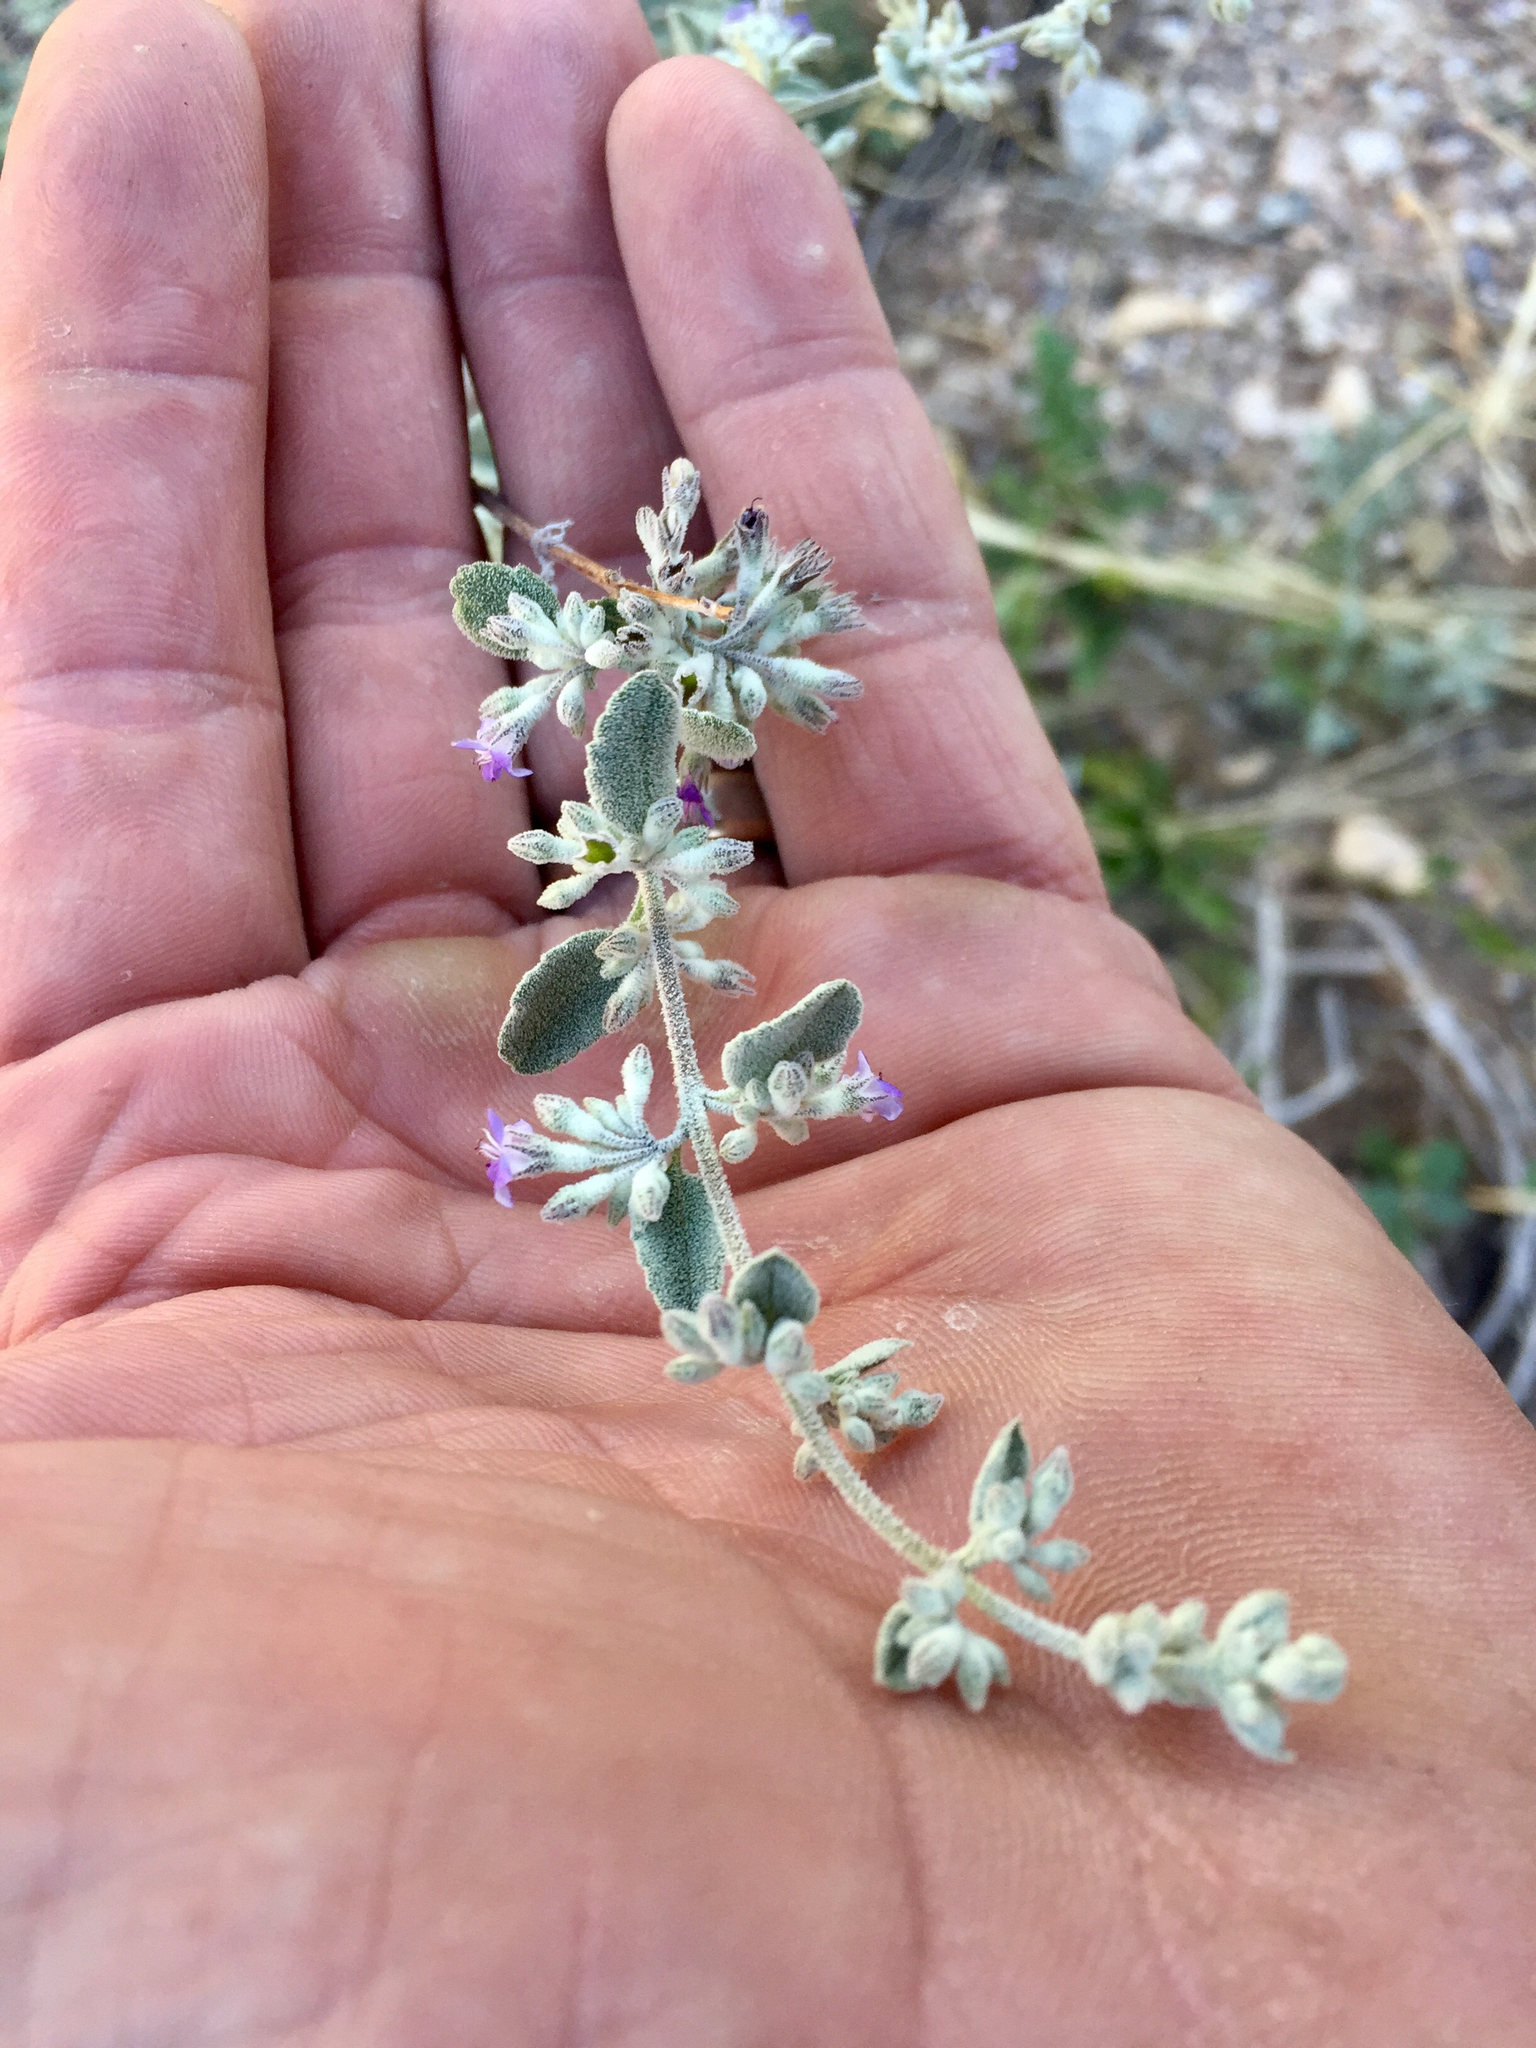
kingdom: Plantae
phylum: Tracheophyta
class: Magnoliopsida
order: Lamiales
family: Lamiaceae
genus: Condea
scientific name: Condea emoryi
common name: Chia
